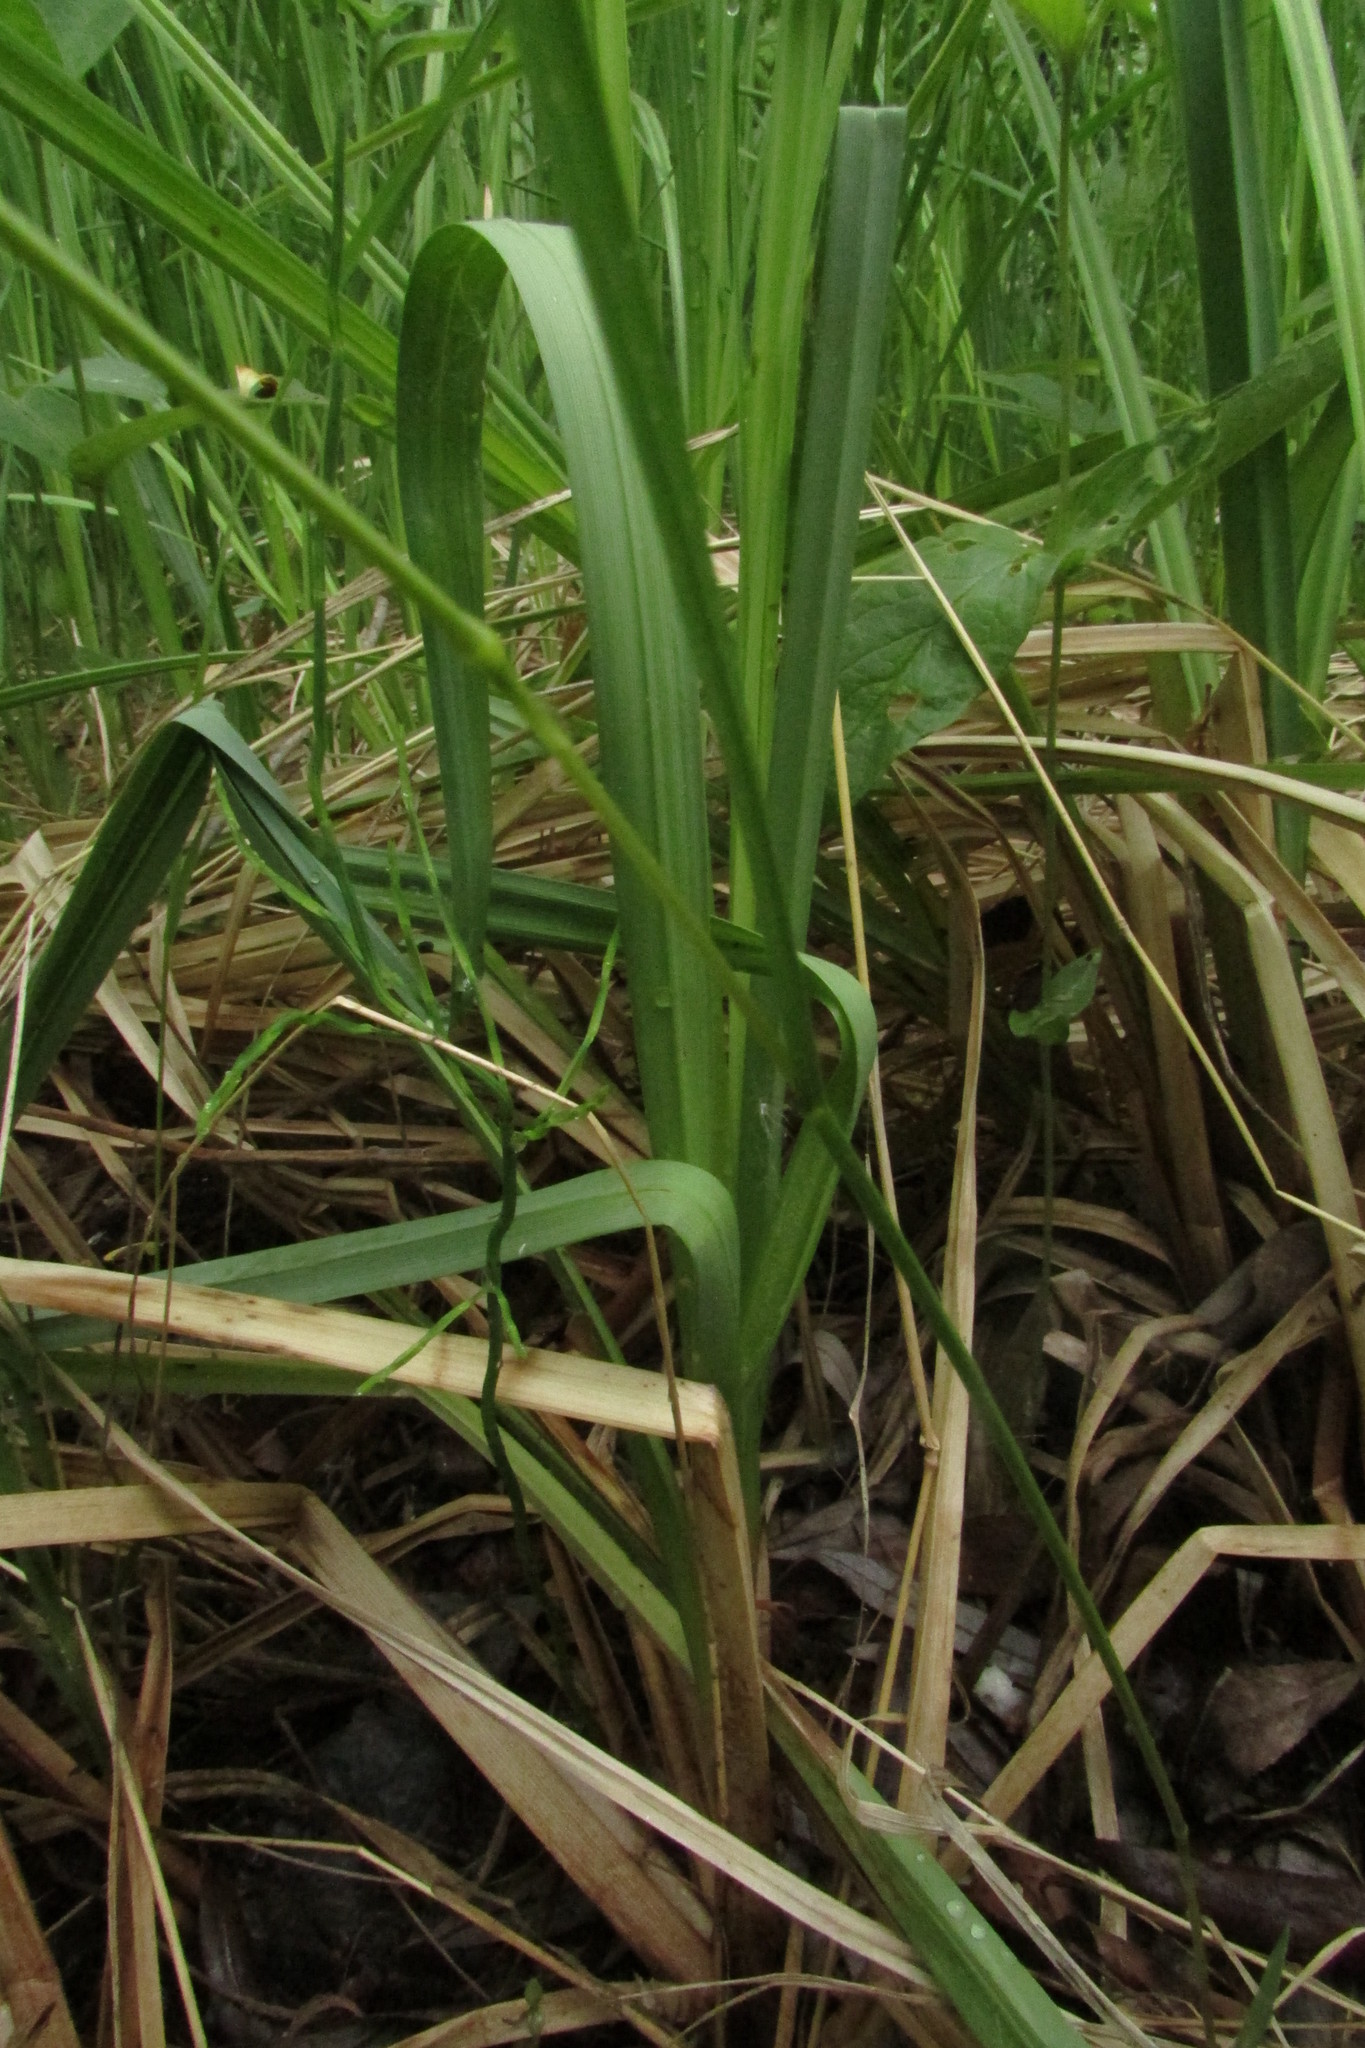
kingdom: Plantae
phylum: Tracheophyta
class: Liliopsida
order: Poales
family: Cyperaceae
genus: Carex
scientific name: Carex riparia
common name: Greater pond-sedge
